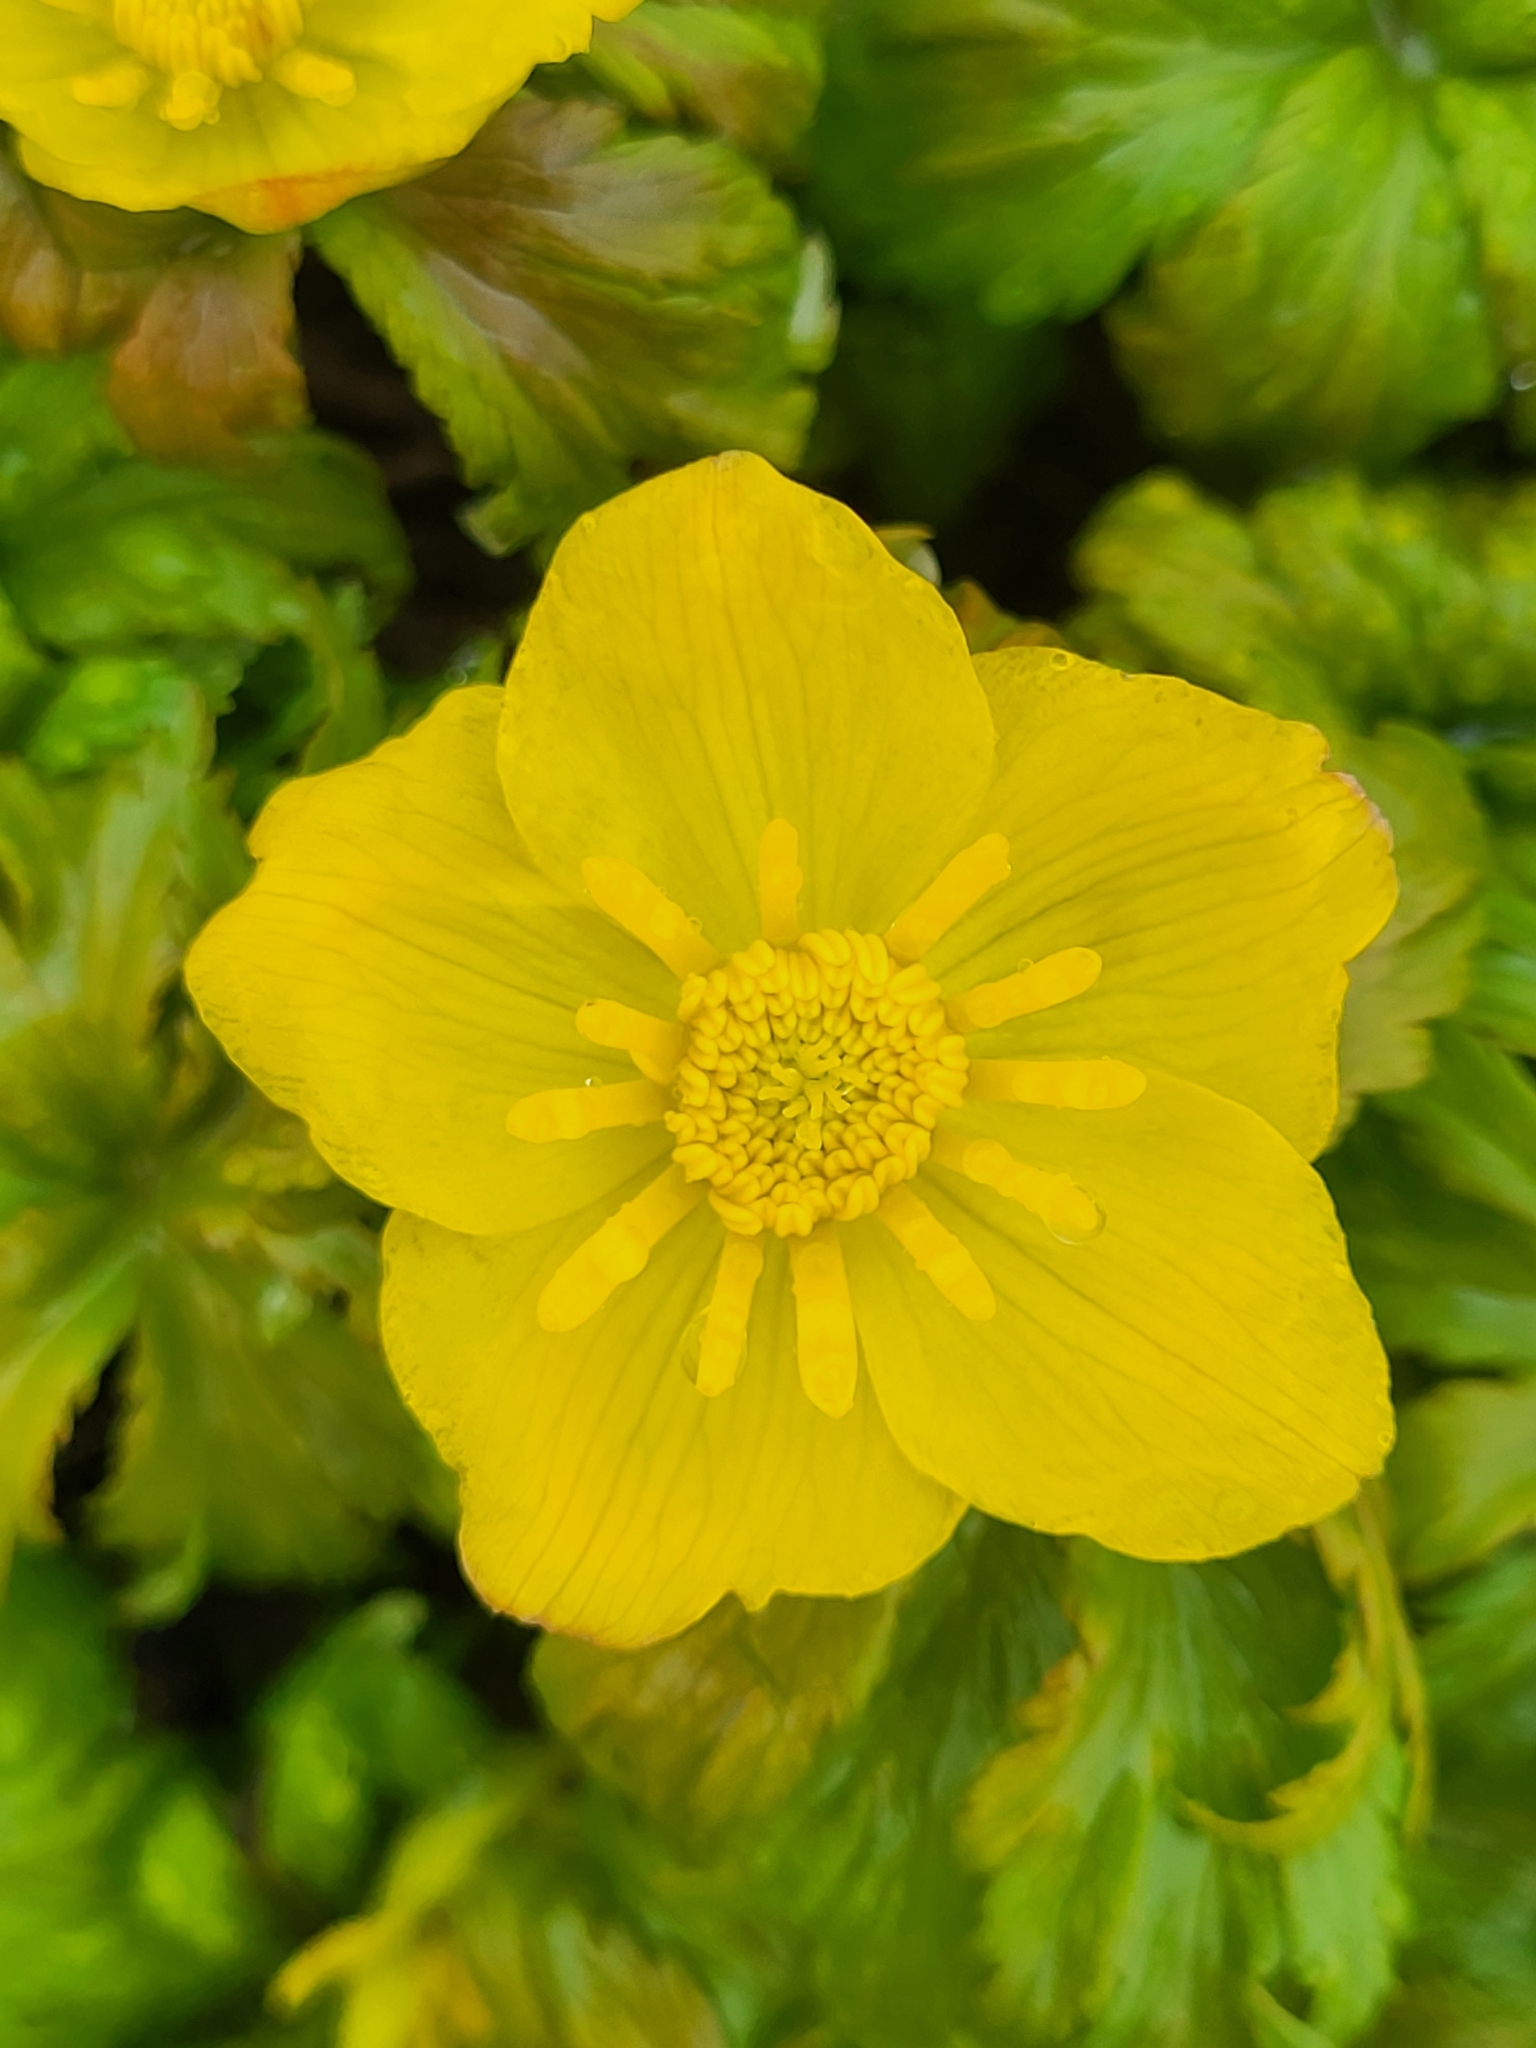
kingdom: Plantae
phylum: Tracheophyta
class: Magnoliopsida
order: Ranunculales
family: Ranunculaceae
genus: Trollius
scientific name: Trollius ranunculinus
